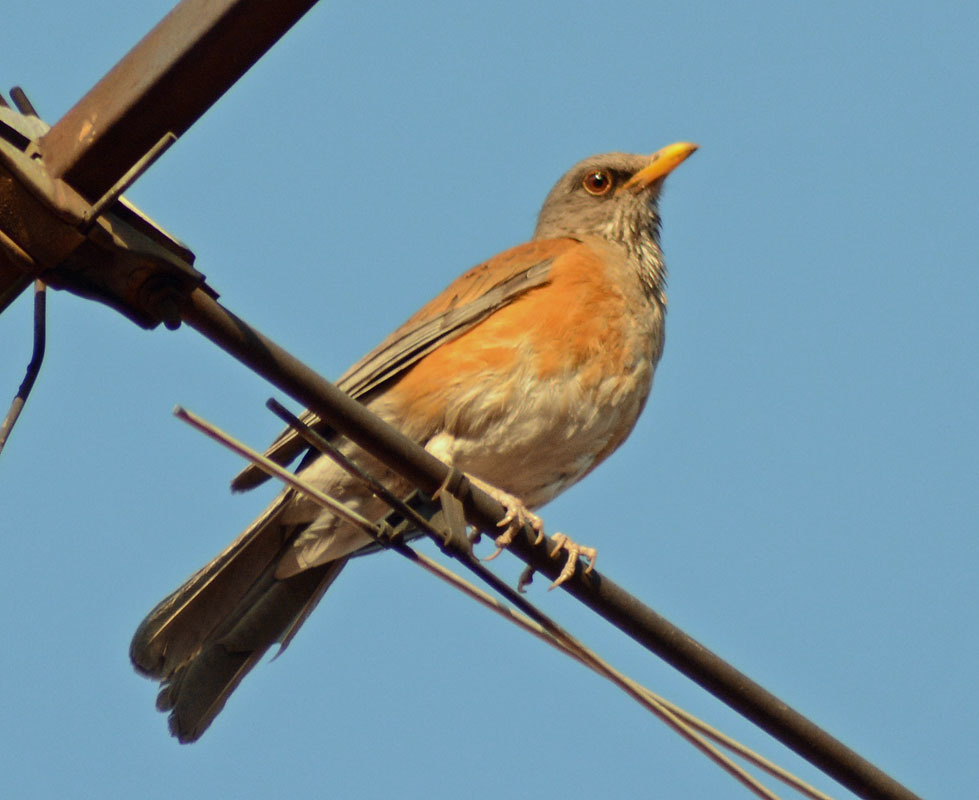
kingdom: Animalia
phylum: Chordata
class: Aves
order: Passeriformes
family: Turdidae
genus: Turdus
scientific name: Turdus rufopalliatus
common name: Rufous-backed robin
